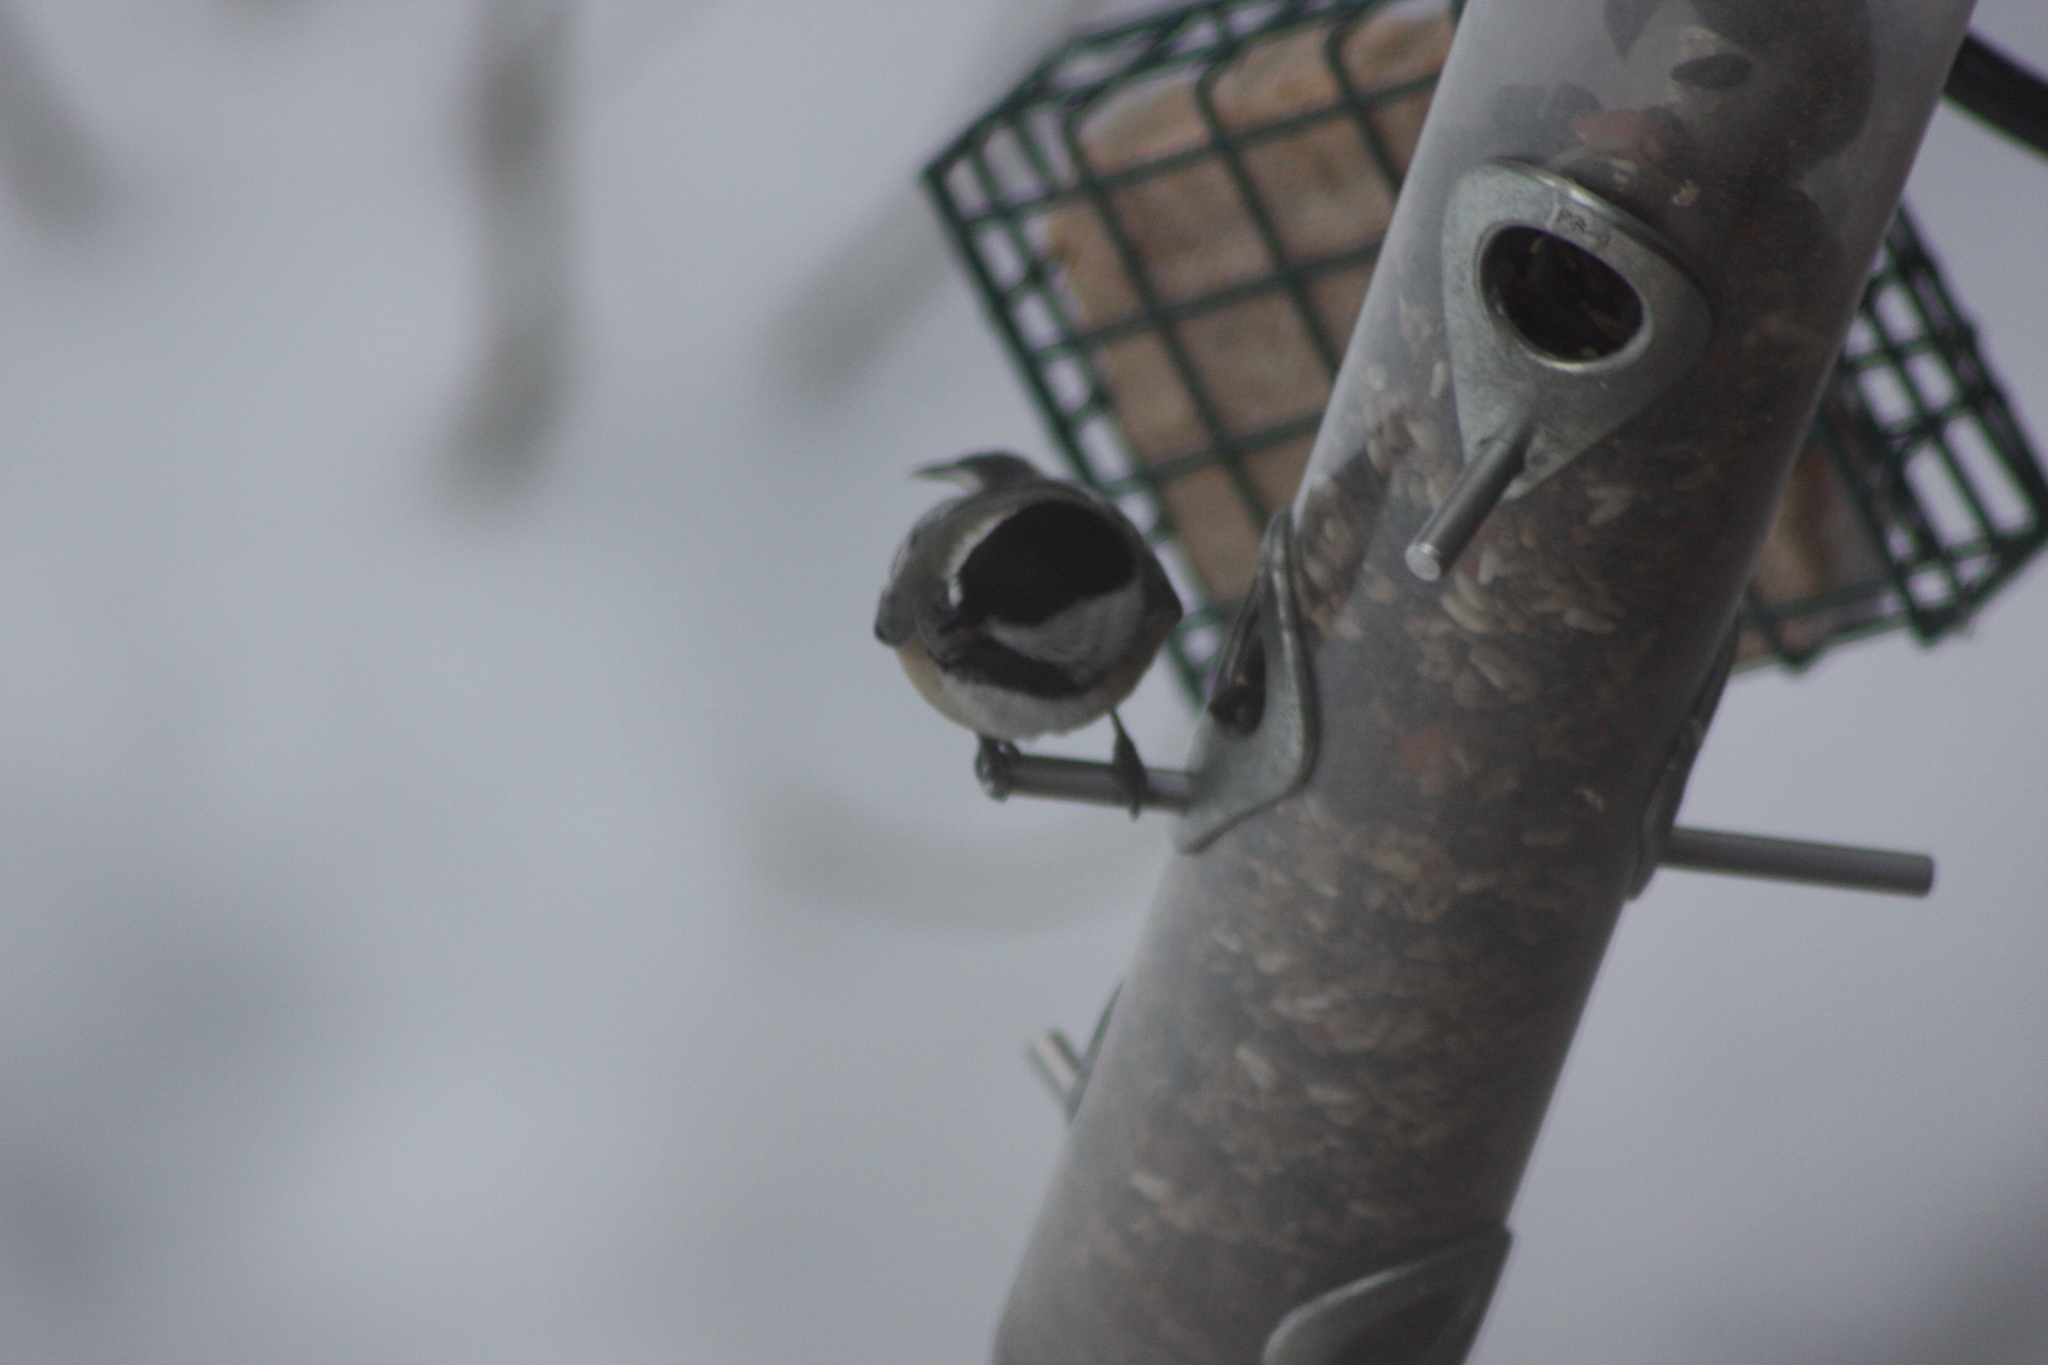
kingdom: Animalia
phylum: Chordata
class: Aves
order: Passeriformes
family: Paridae
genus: Poecile
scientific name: Poecile atricapillus
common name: Black-capped chickadee
